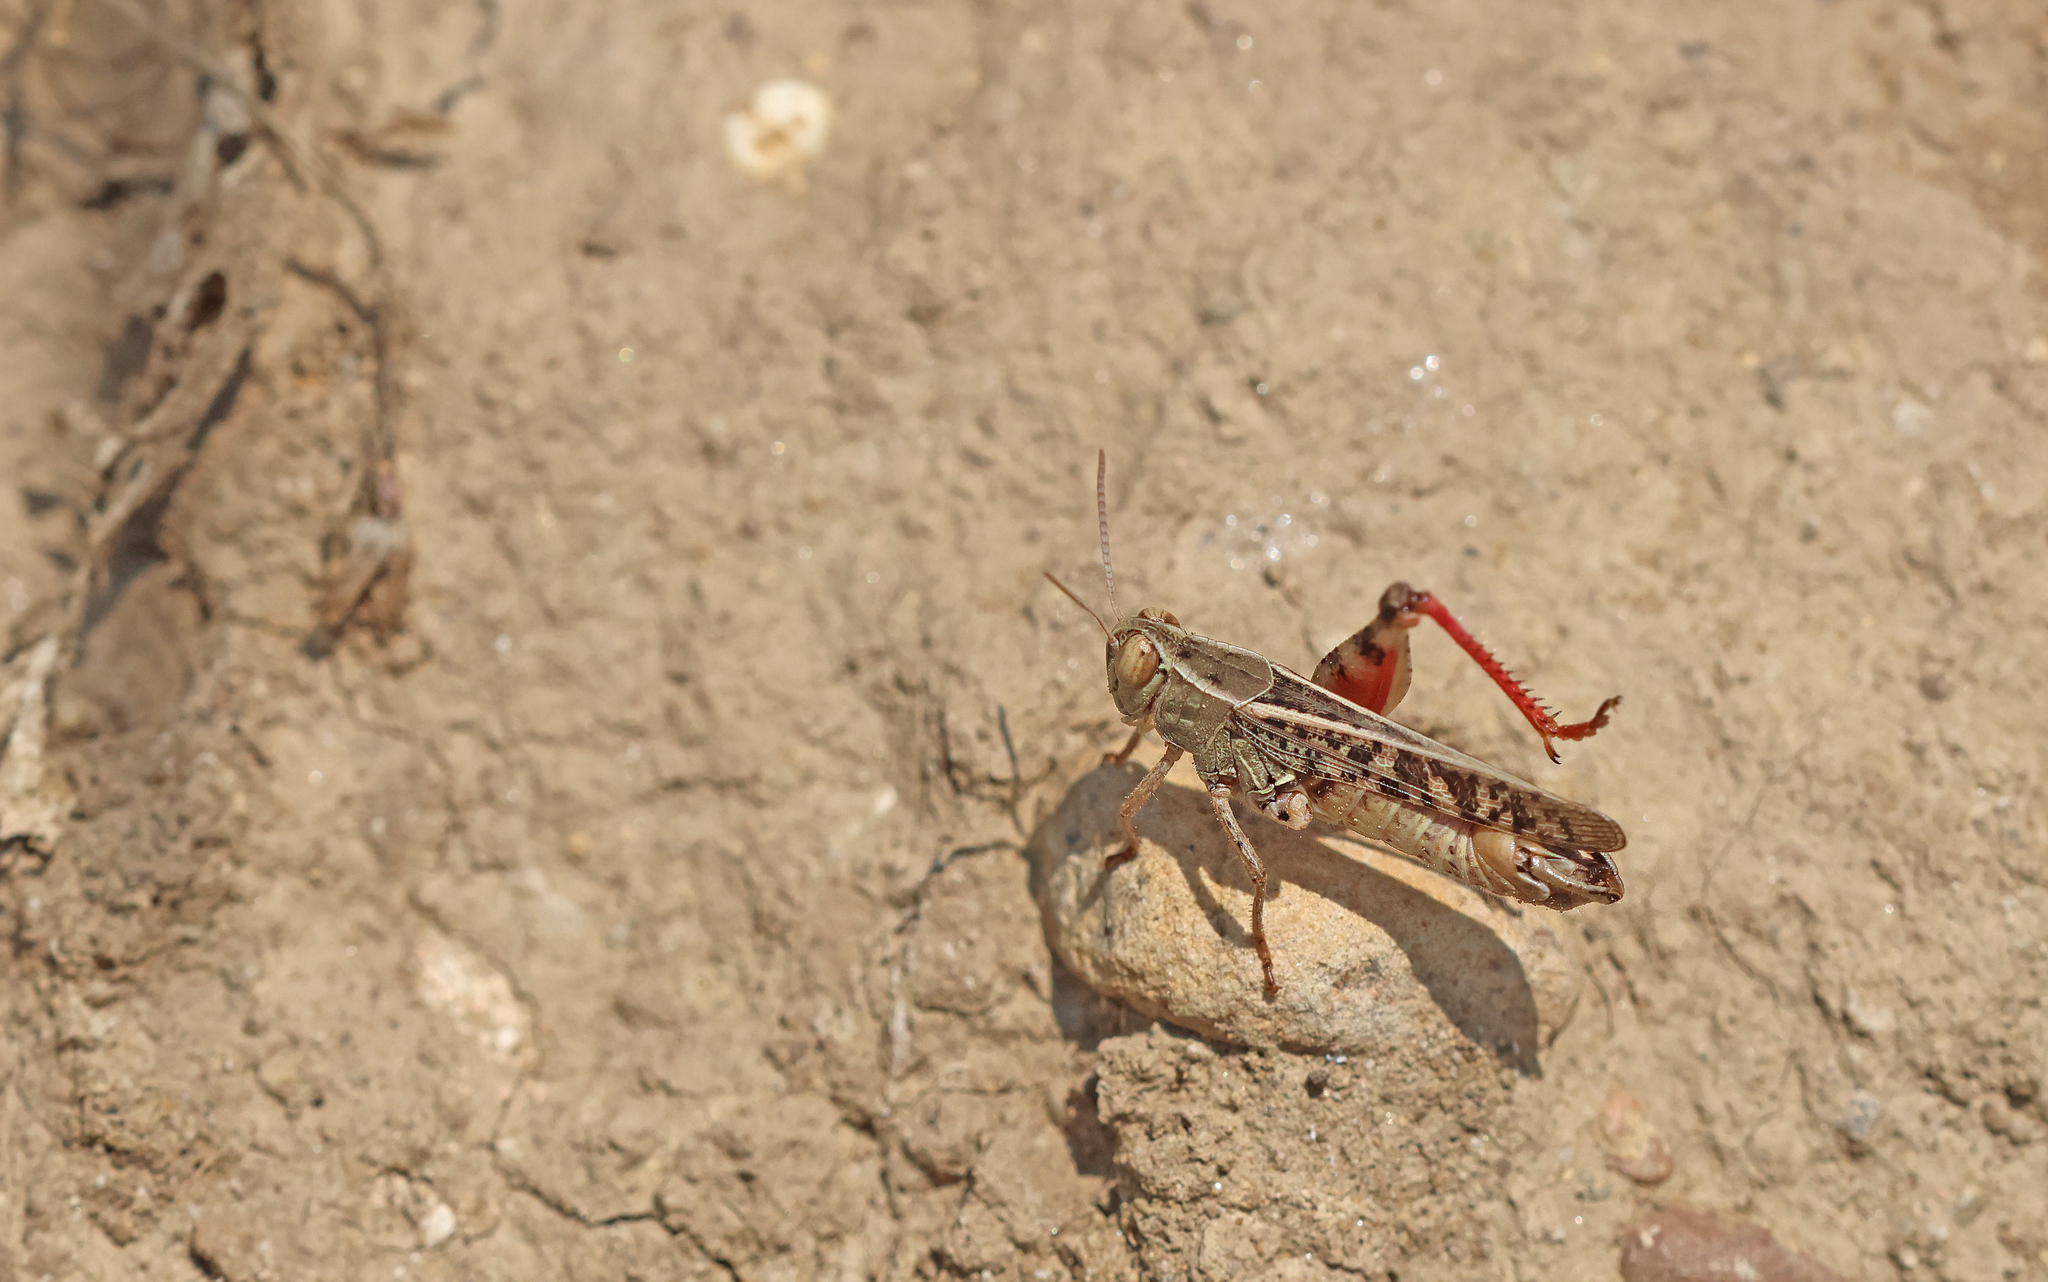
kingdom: Animalia
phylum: Arthropoda
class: Insecta
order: Orthoptera
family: Acrididae
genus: Calliptamus
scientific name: Calliptamus italicus
